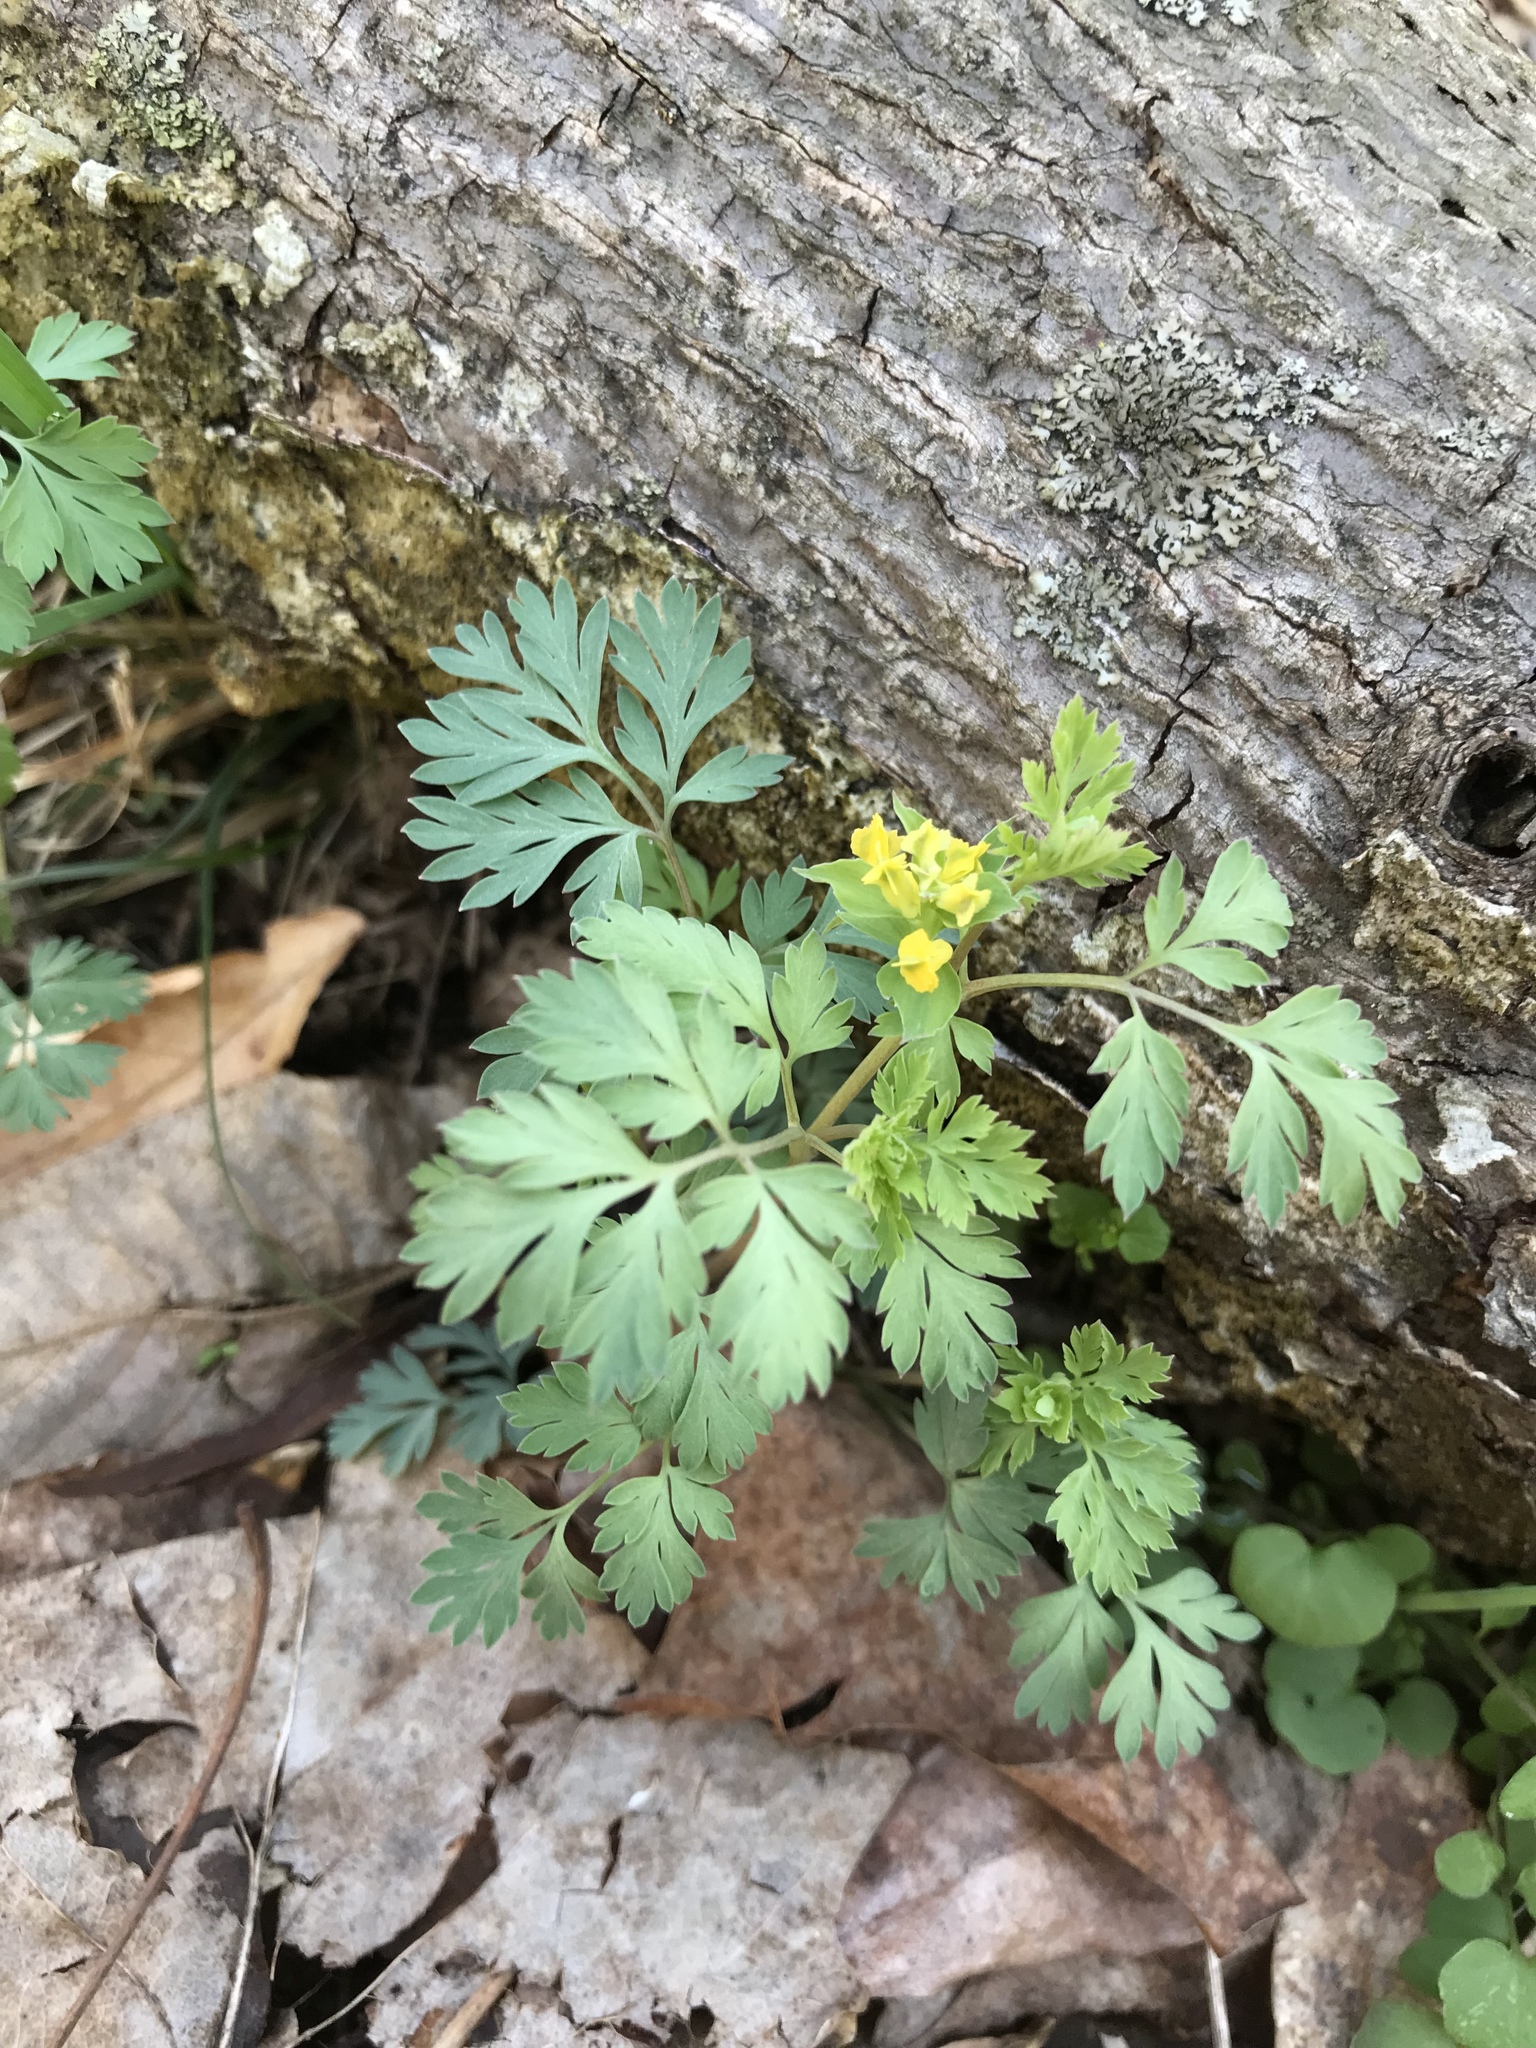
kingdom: Plantae
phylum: Tracheophyta
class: Magnoliopsida
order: Ranunculales
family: Papaveraceae
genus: Corydalis
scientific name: Corydalis flavula
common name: Yellow corydalis
